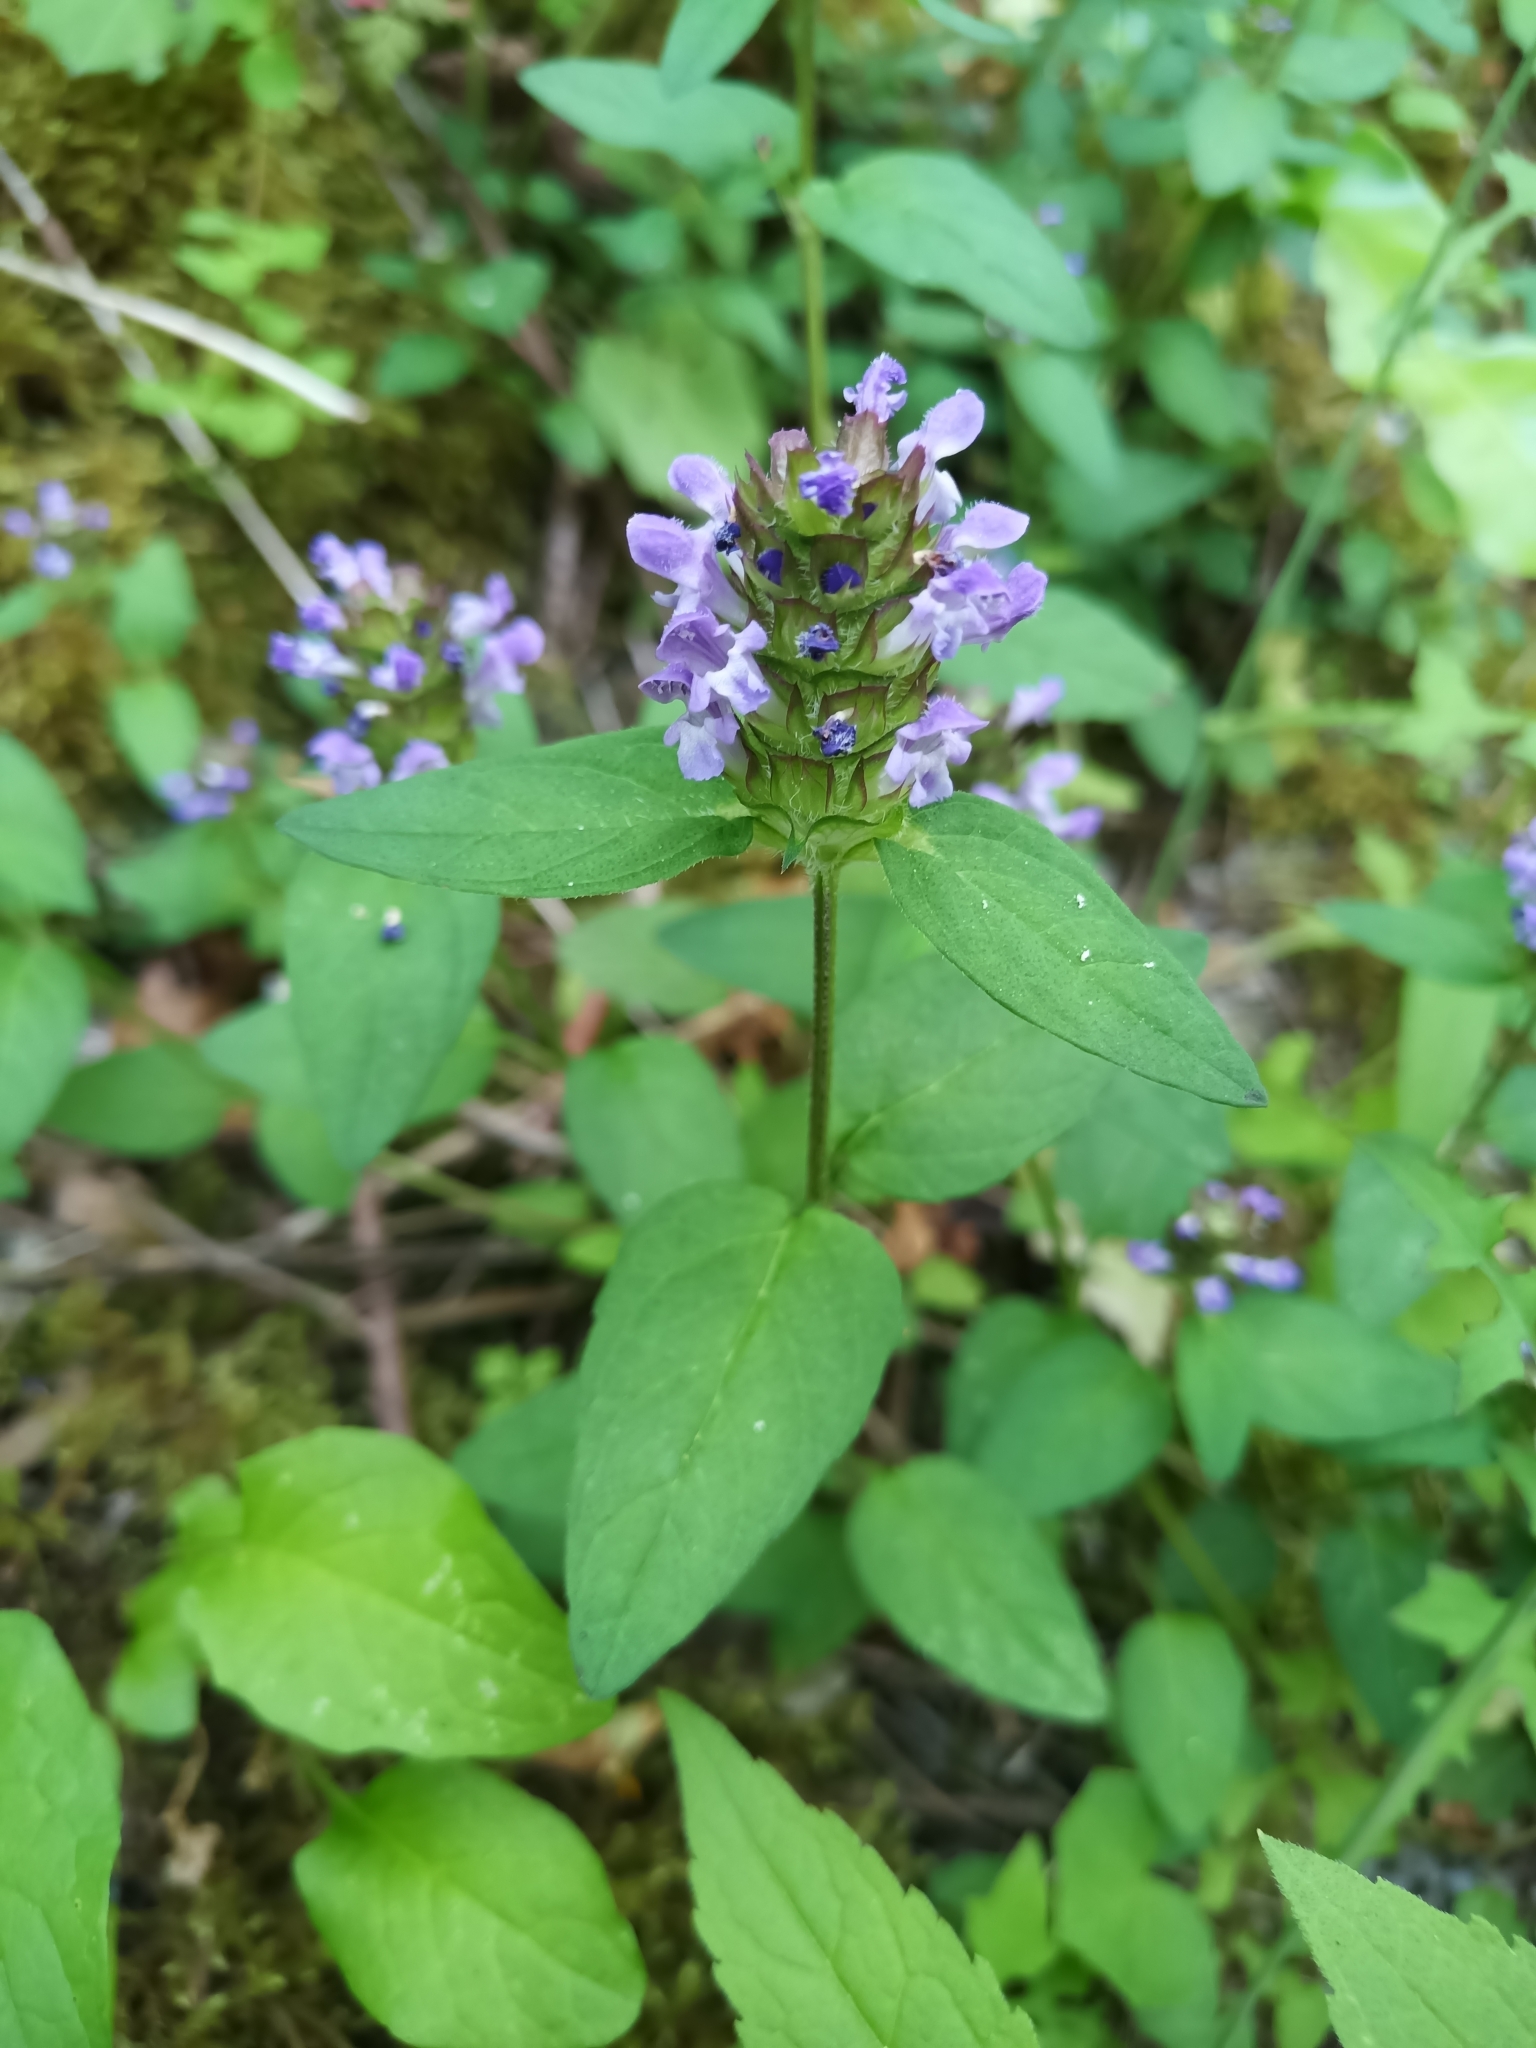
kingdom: Plantae
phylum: Tracheophyta
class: Magnoliopsida
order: Lamiales
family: Lamiaceae
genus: Prunella
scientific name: Prunella vulgaris
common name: Heal-all
